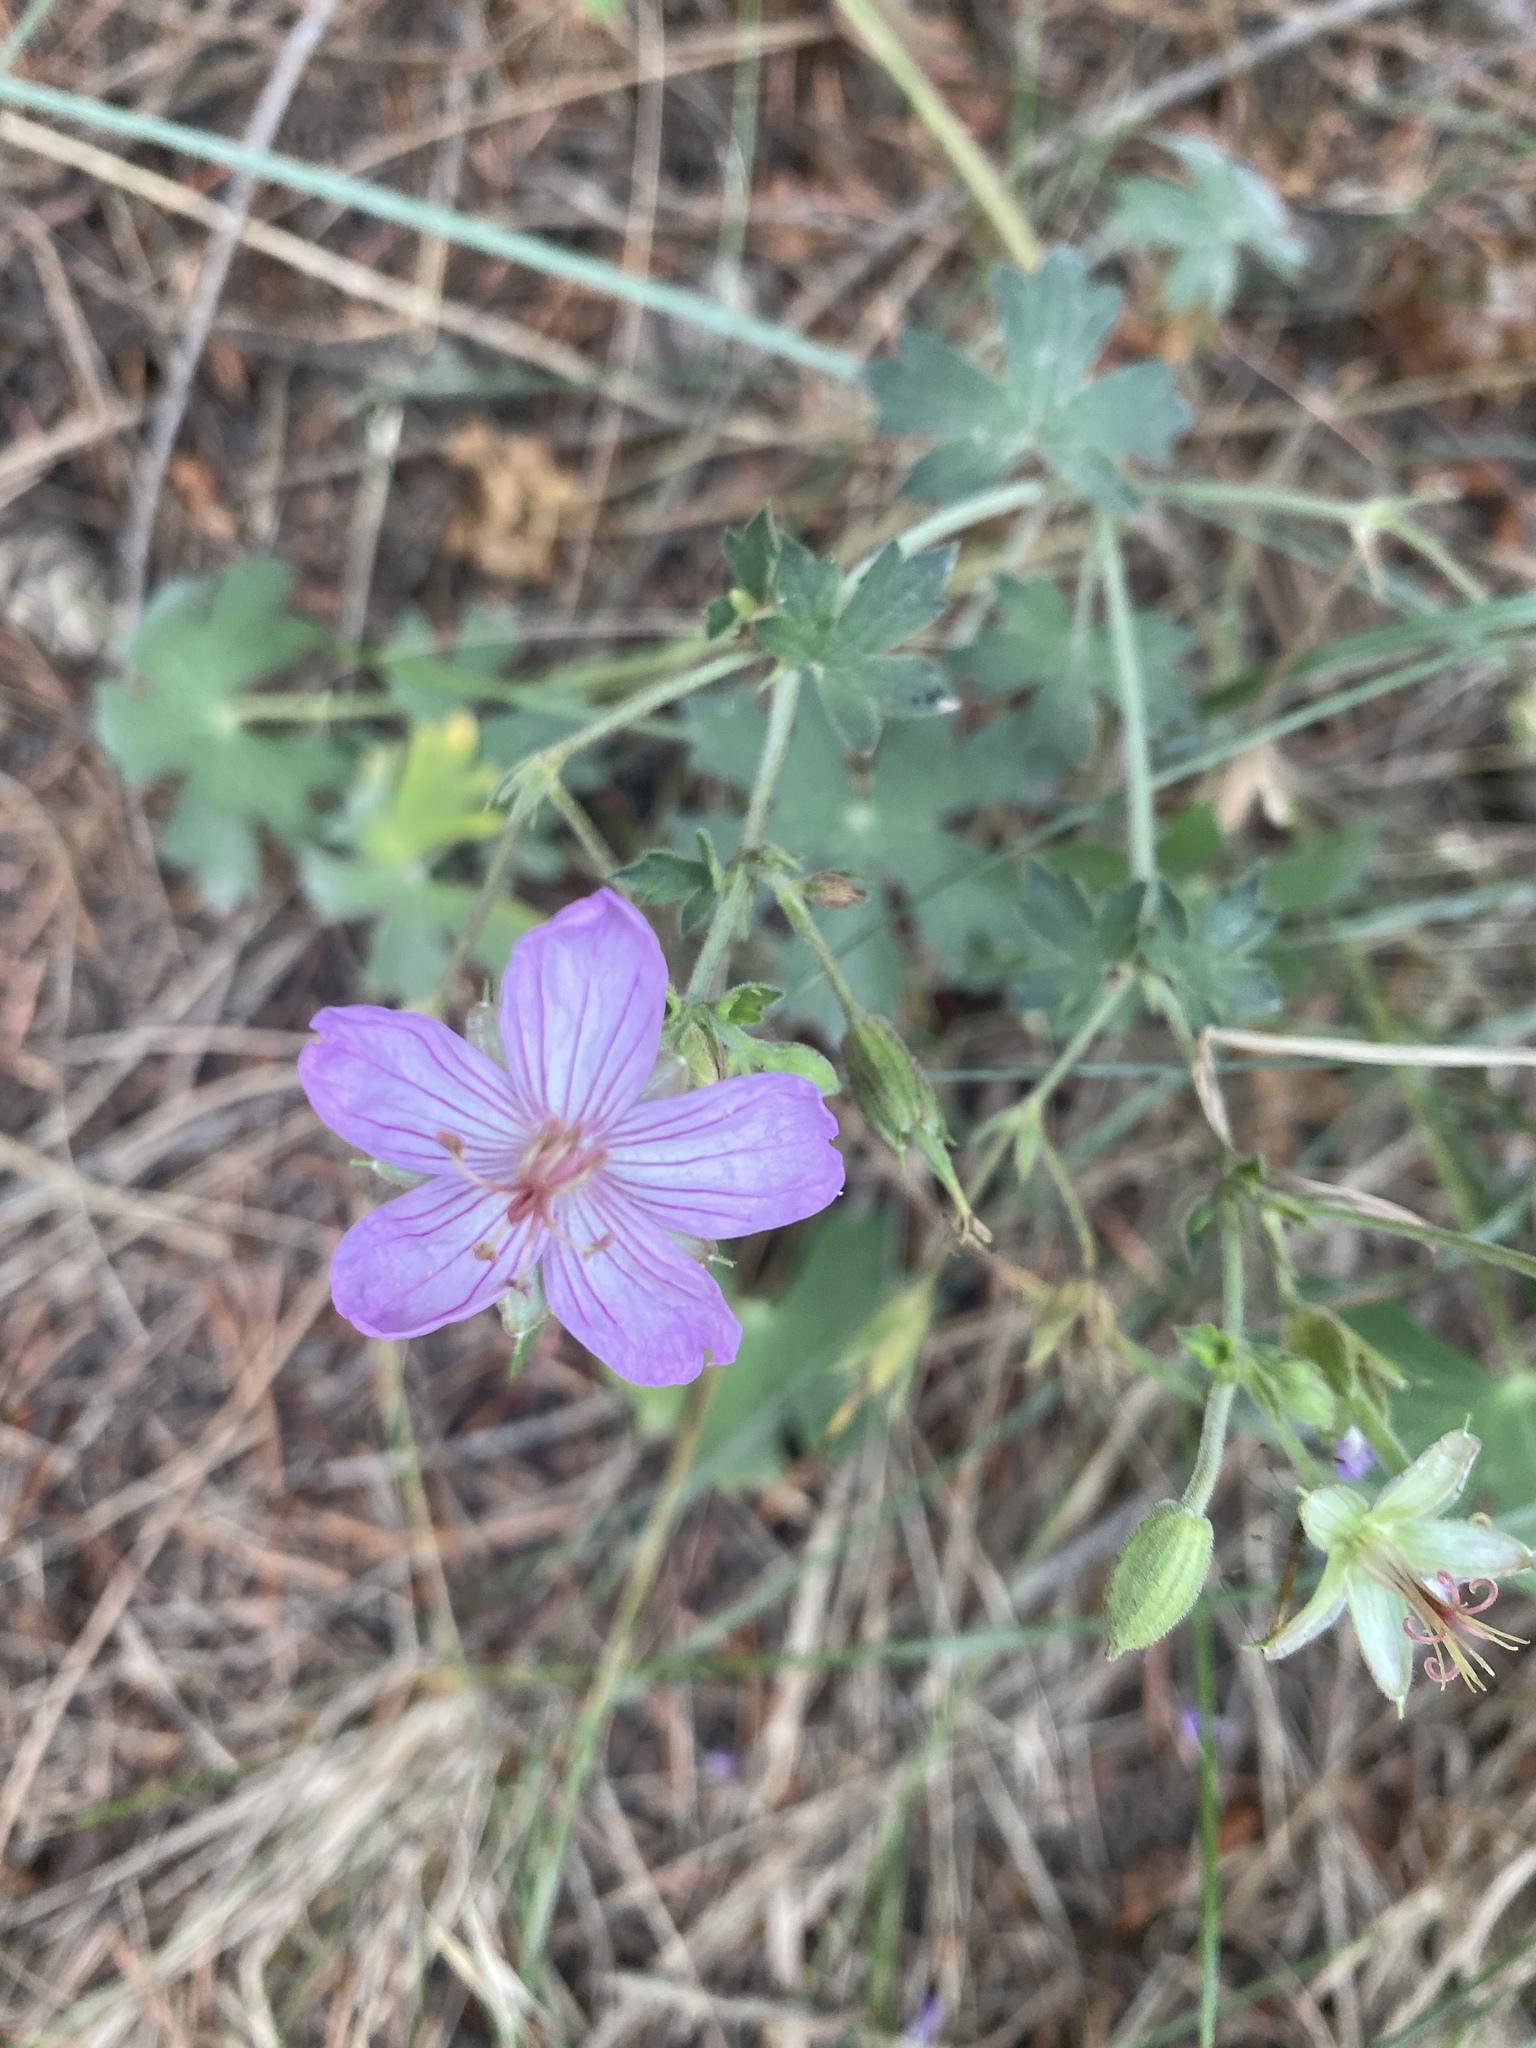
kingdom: Plantae
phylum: Tracheophyta
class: Magnoliopsida
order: Geraniales
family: Geraniaceae
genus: Geranium
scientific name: Geranium caespitosum
